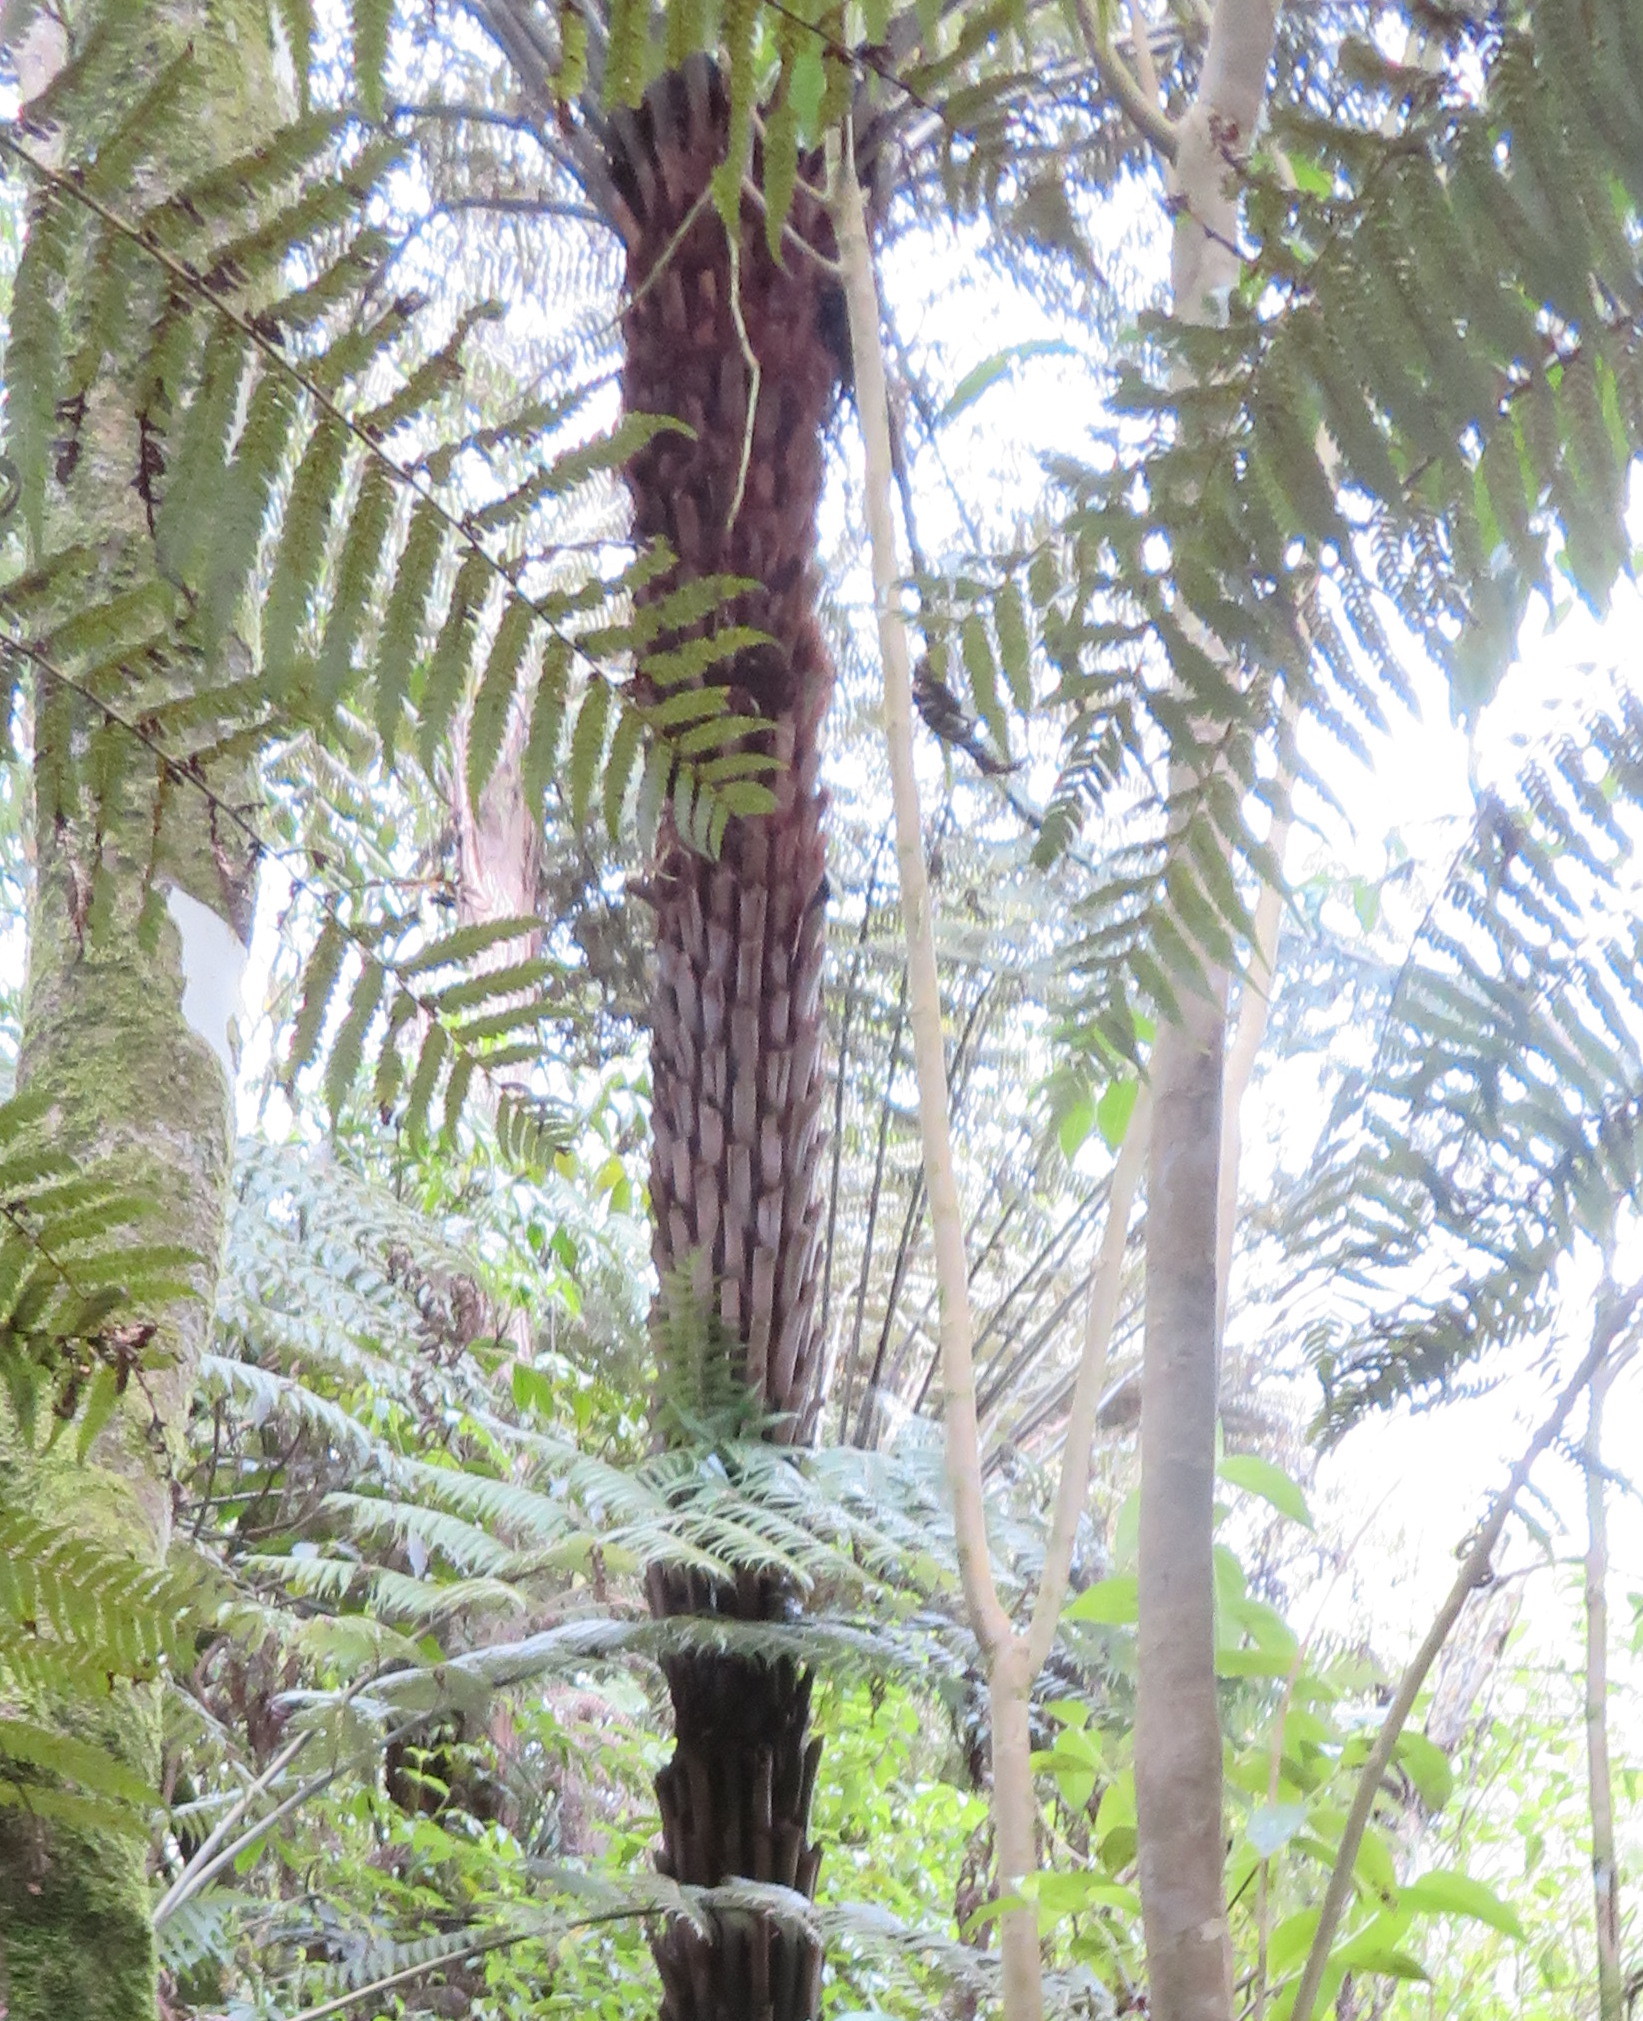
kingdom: Plantae
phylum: Tracheophyta
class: Polypodiopsida
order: Cyatheales
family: Cyatheaceae
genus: Alsophila
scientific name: Alsophila dealbata
